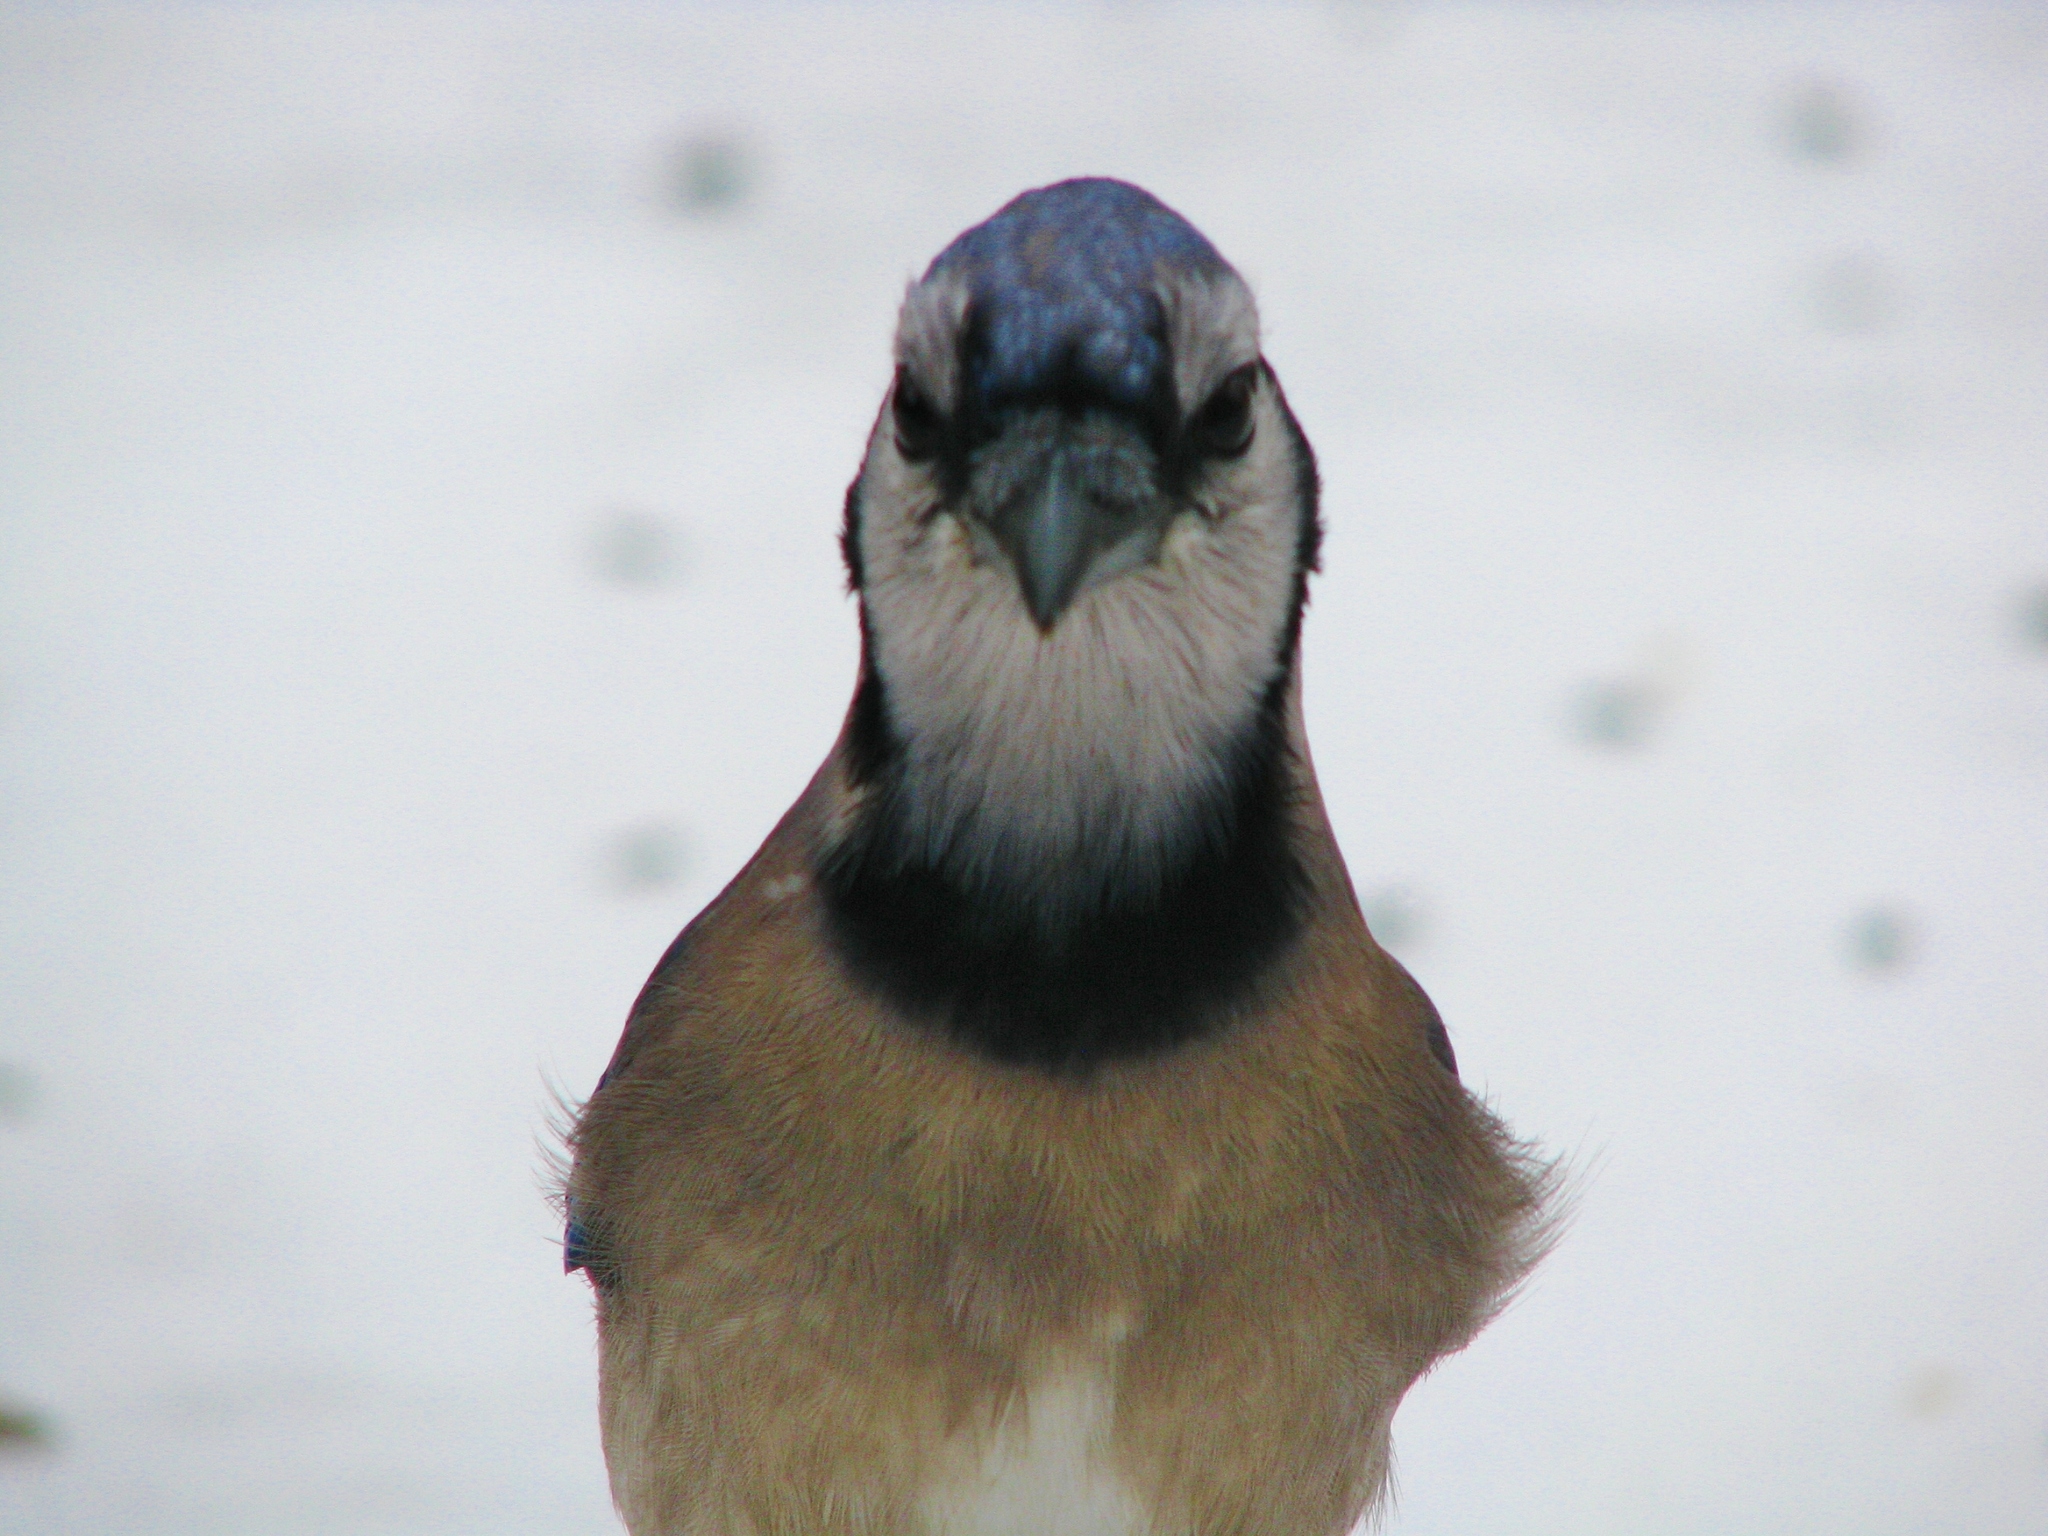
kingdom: Animalia
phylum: Chordata
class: Aves
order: Passeriformes
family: Corvidae
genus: Cyanocitta
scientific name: Cyanocitta cristata
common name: Blue jay
